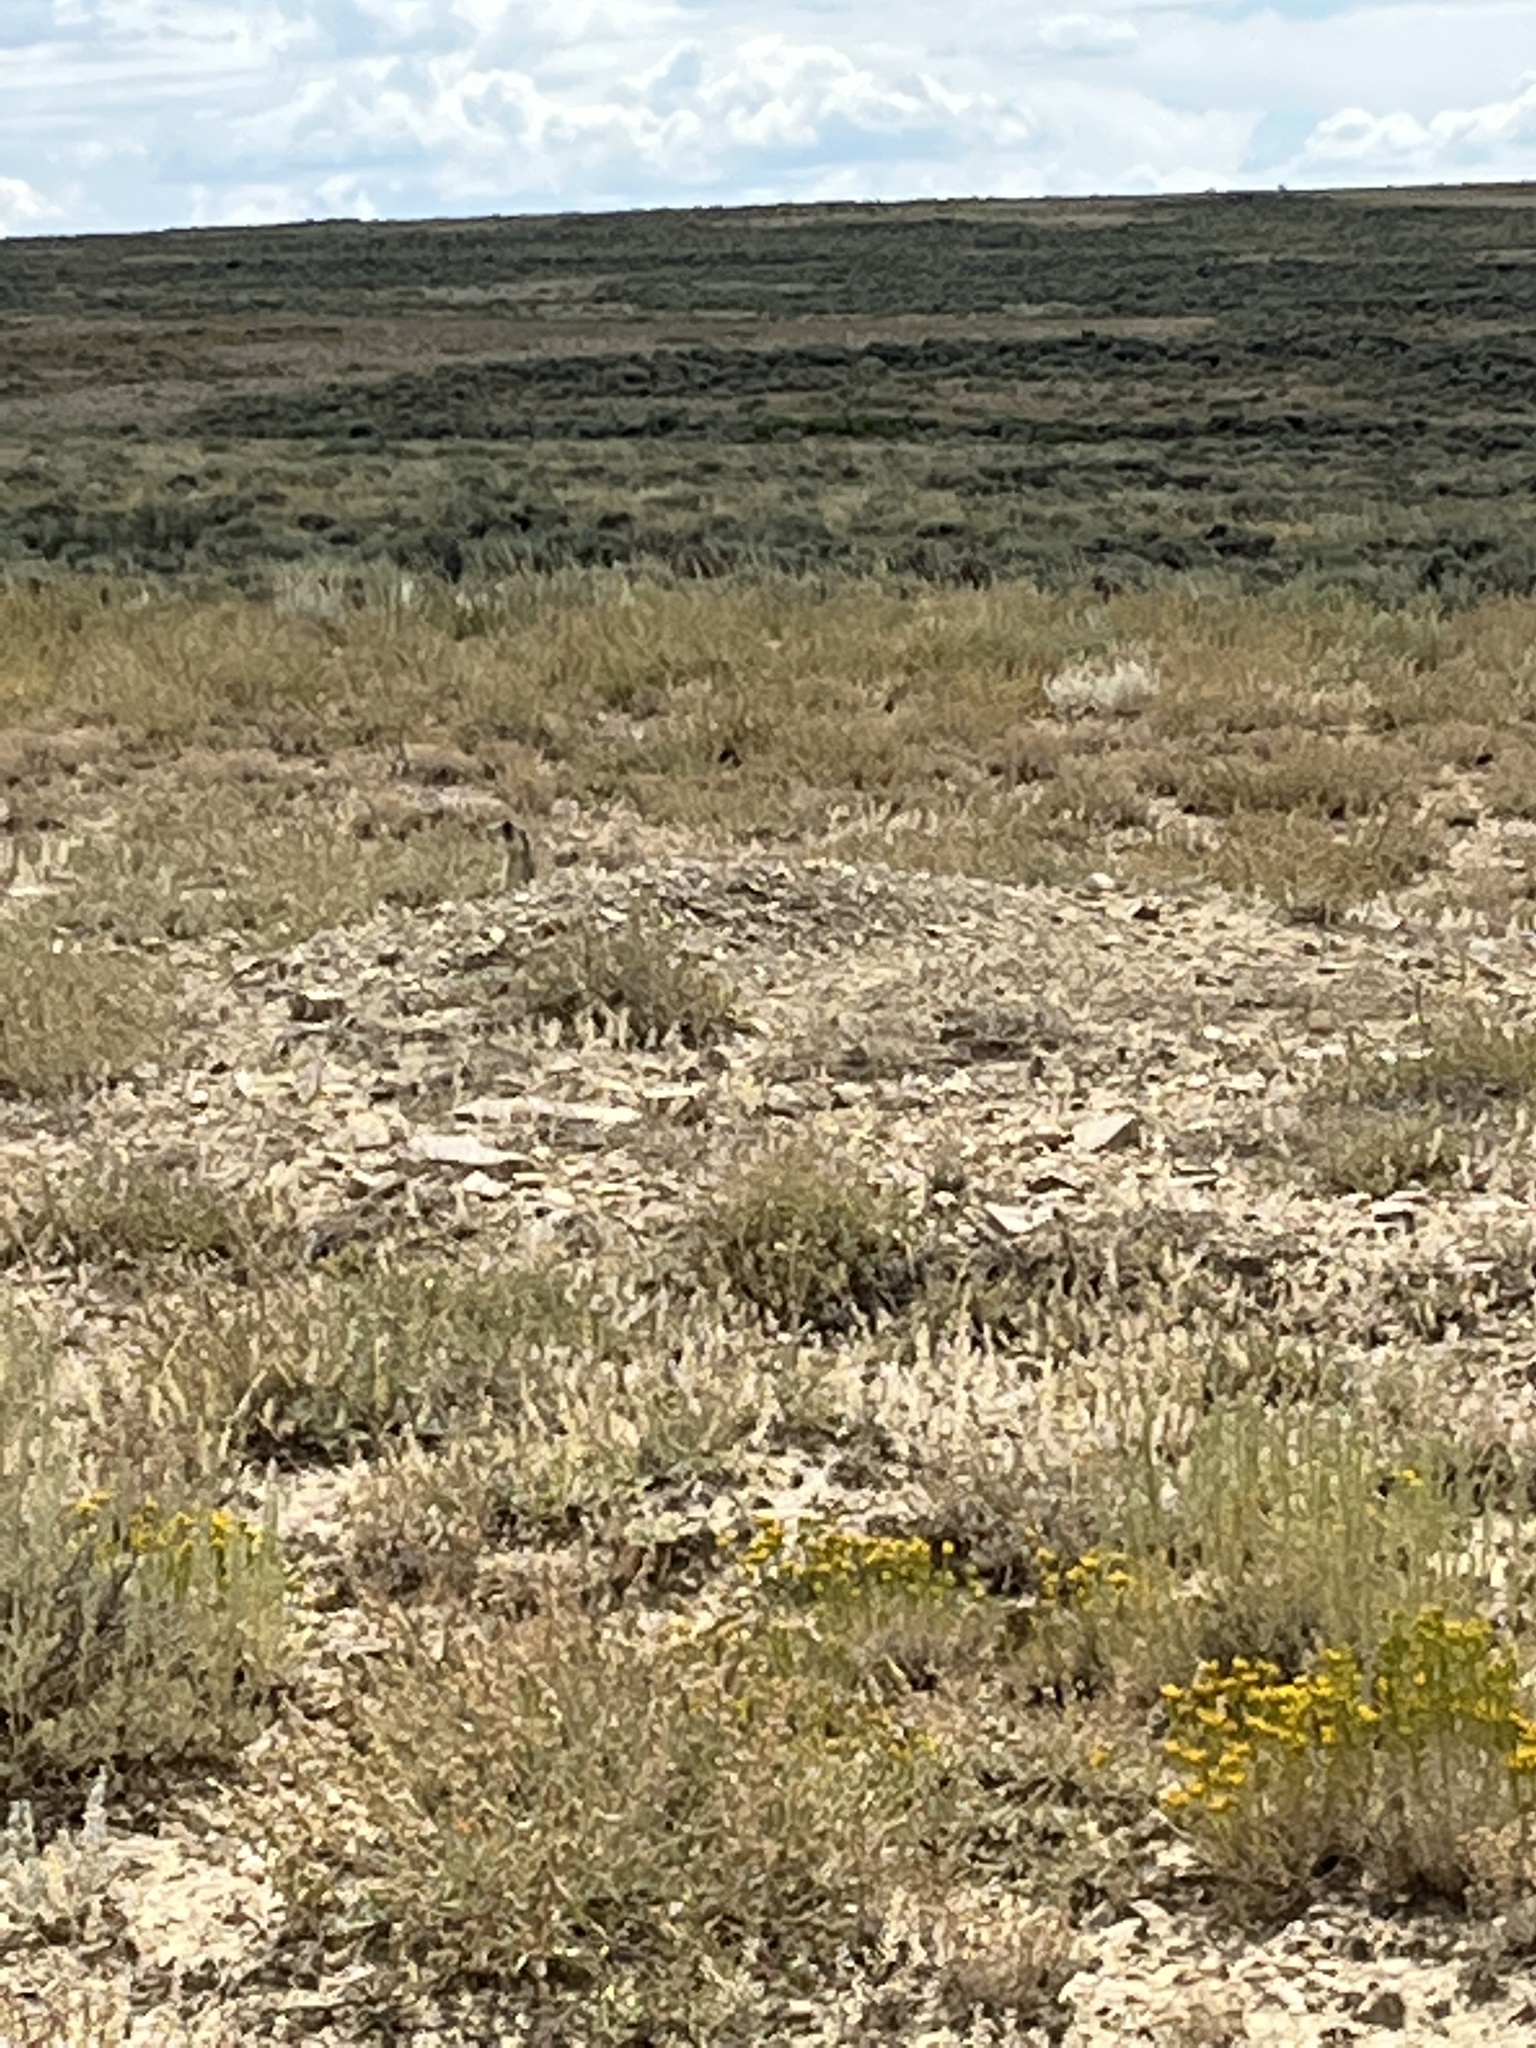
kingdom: Animalia
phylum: Chordata
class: Mammalia
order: Rodentia
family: Sciuridae
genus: Cynomys
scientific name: Cynomys leucurus
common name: White-tailed prairie dog
